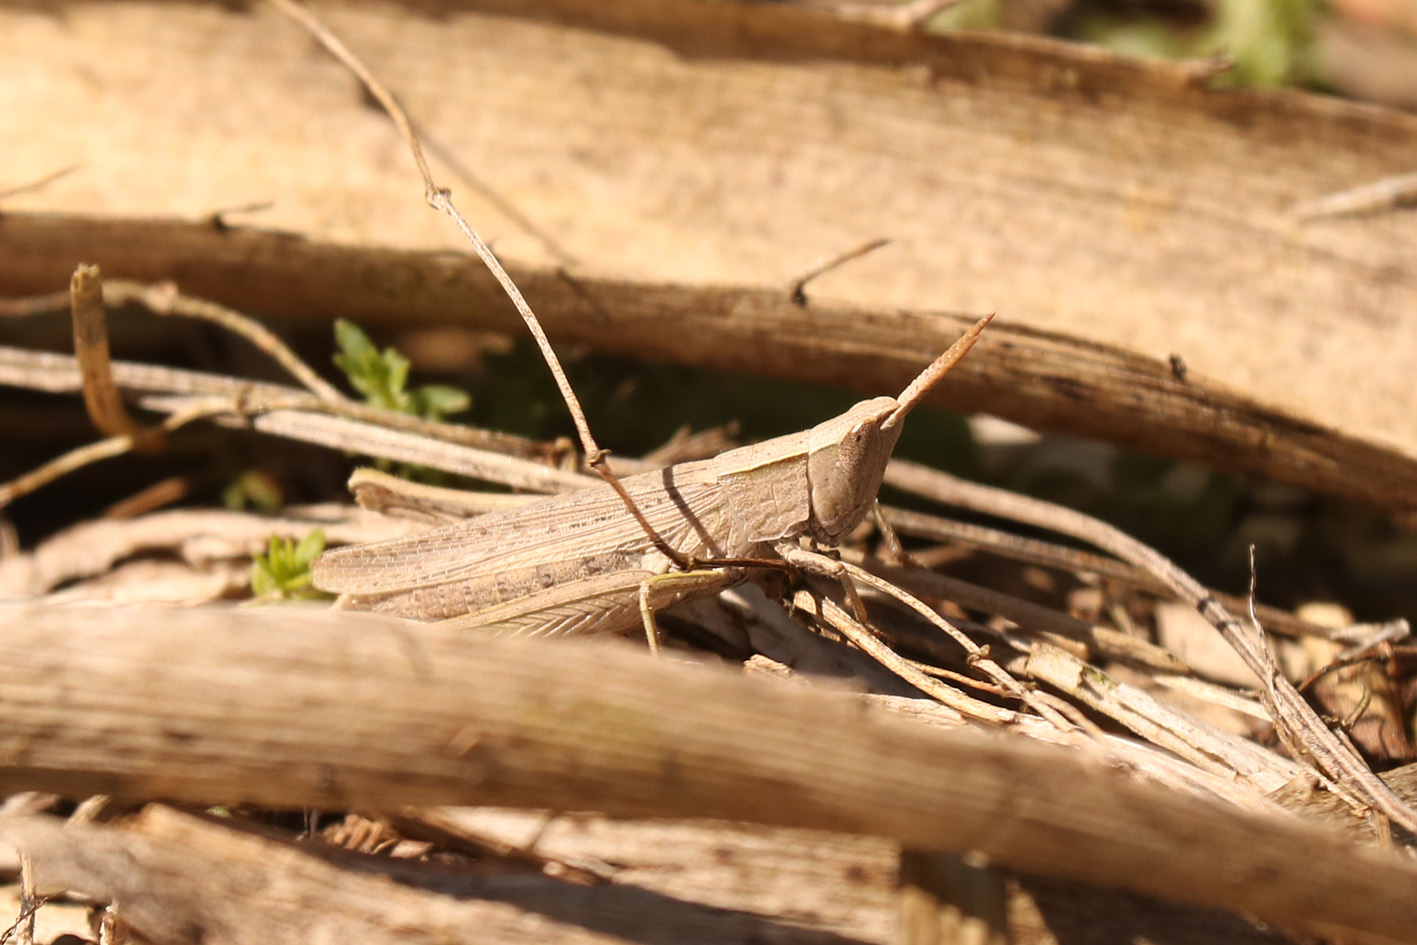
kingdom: Animalia
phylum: Arthropoda
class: Insecta
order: Orthoptera
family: Acrididae
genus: Laplatacris
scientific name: Laplatacris dispar
